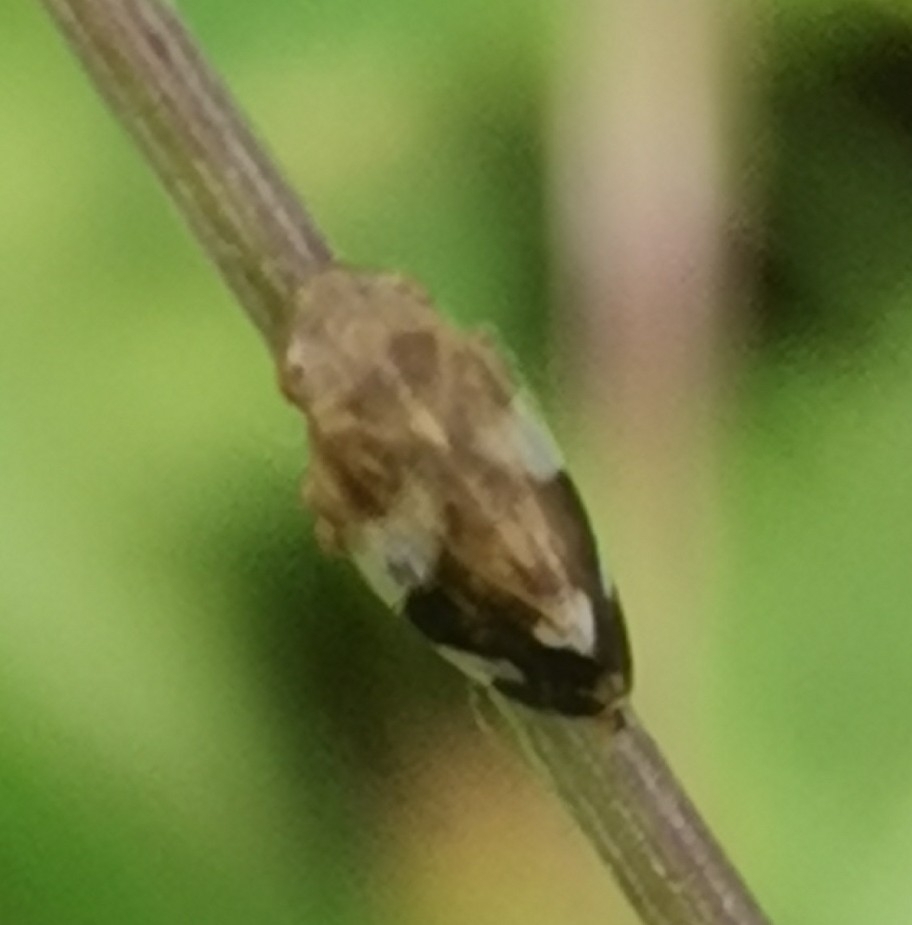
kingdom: Animalia
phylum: Arthropoda
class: Insecta
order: Hemiptera
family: Aphrophoridae
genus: Philaenus
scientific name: Philaenus spumarius
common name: Meadow spittlebug
